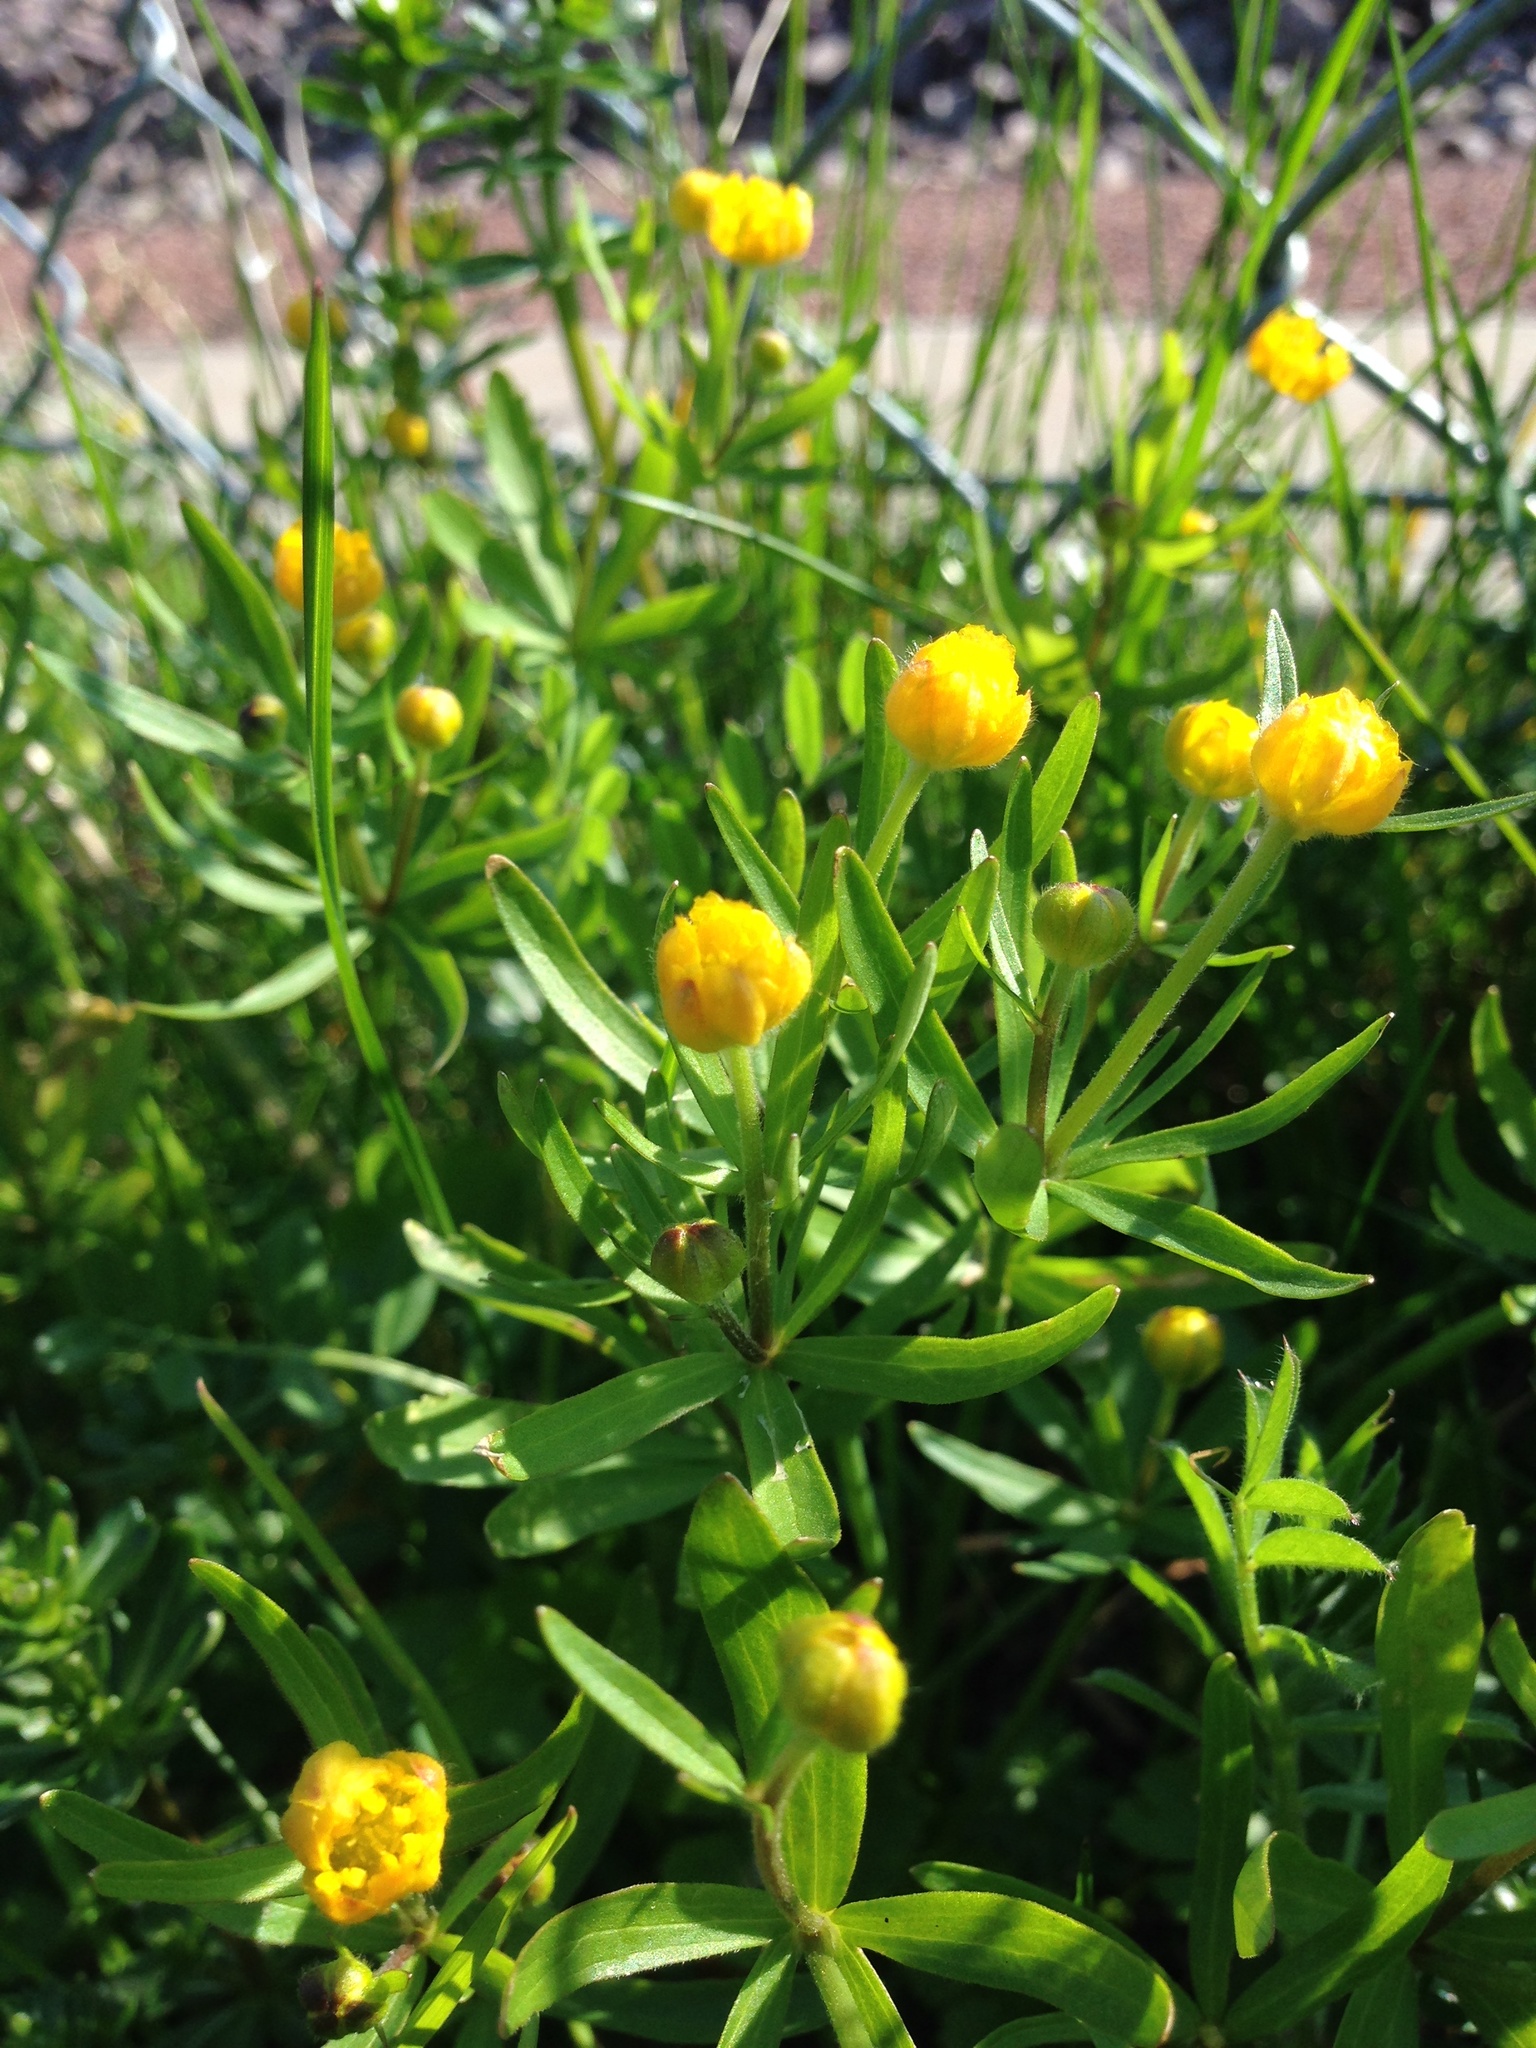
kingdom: Plantae
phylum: Tracheophyta
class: Magnoliopsida
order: Ranunculales
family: Ranunculaceae
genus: Ranunculus
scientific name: Ranunculus auricomus
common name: Goldilocks buttercup
